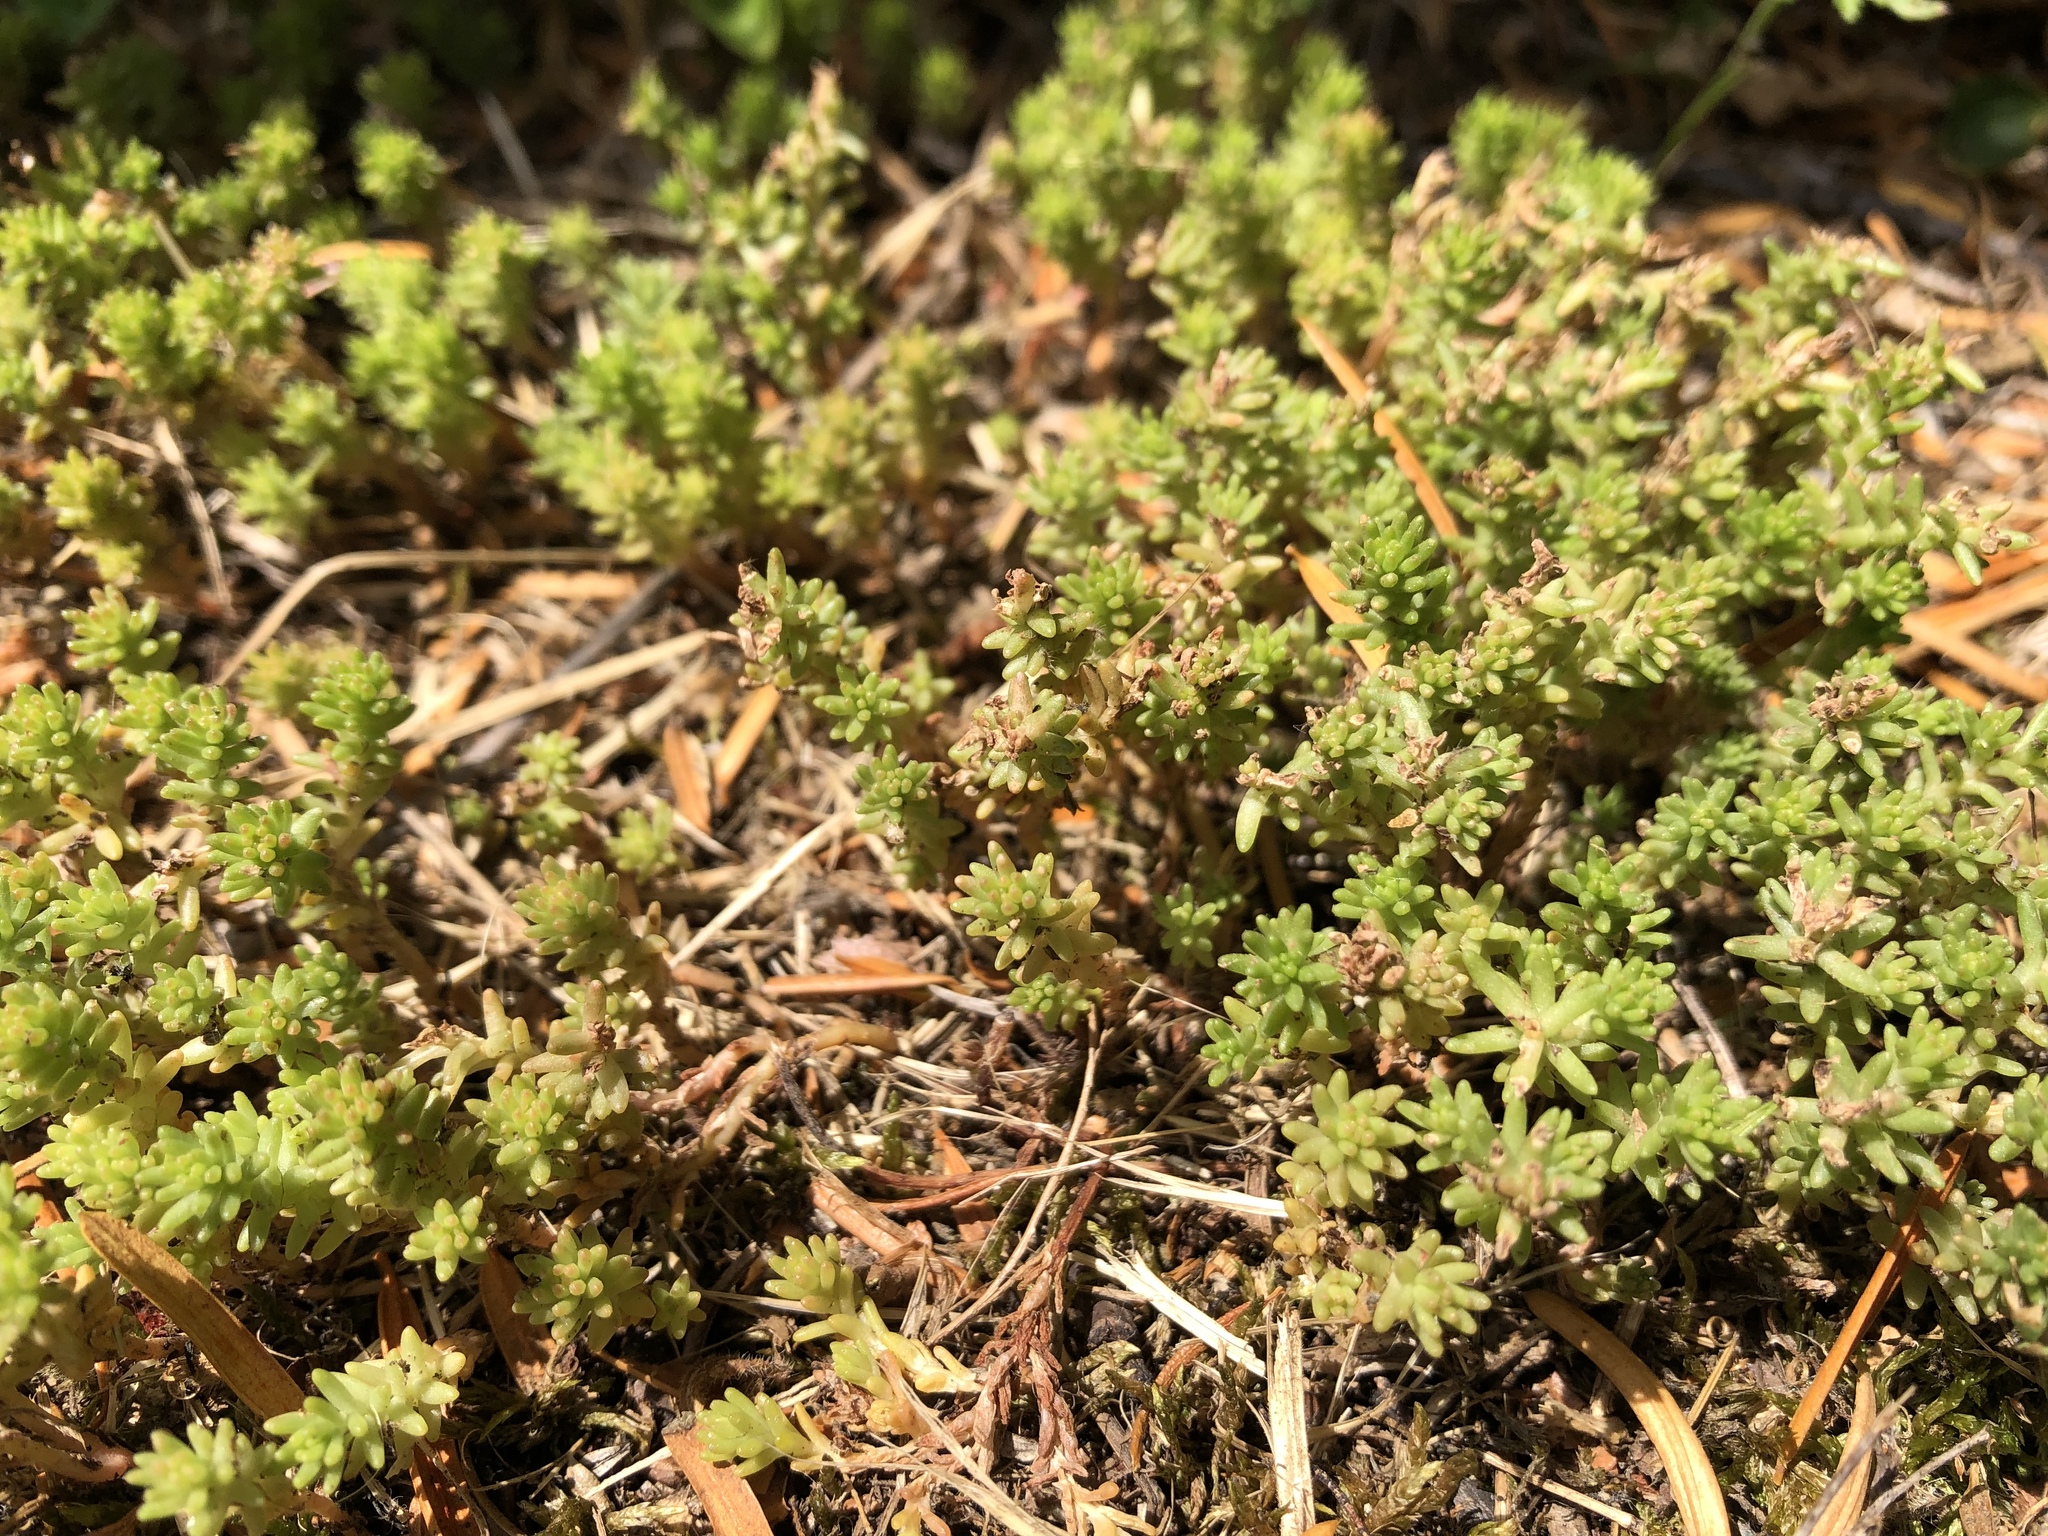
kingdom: Plantae
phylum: Tracheophyta
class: Magnoliopsida
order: Saxifragales
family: Crassulaceae
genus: Sedum
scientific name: Sedum sexangulare
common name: Tasteless stonecrop
